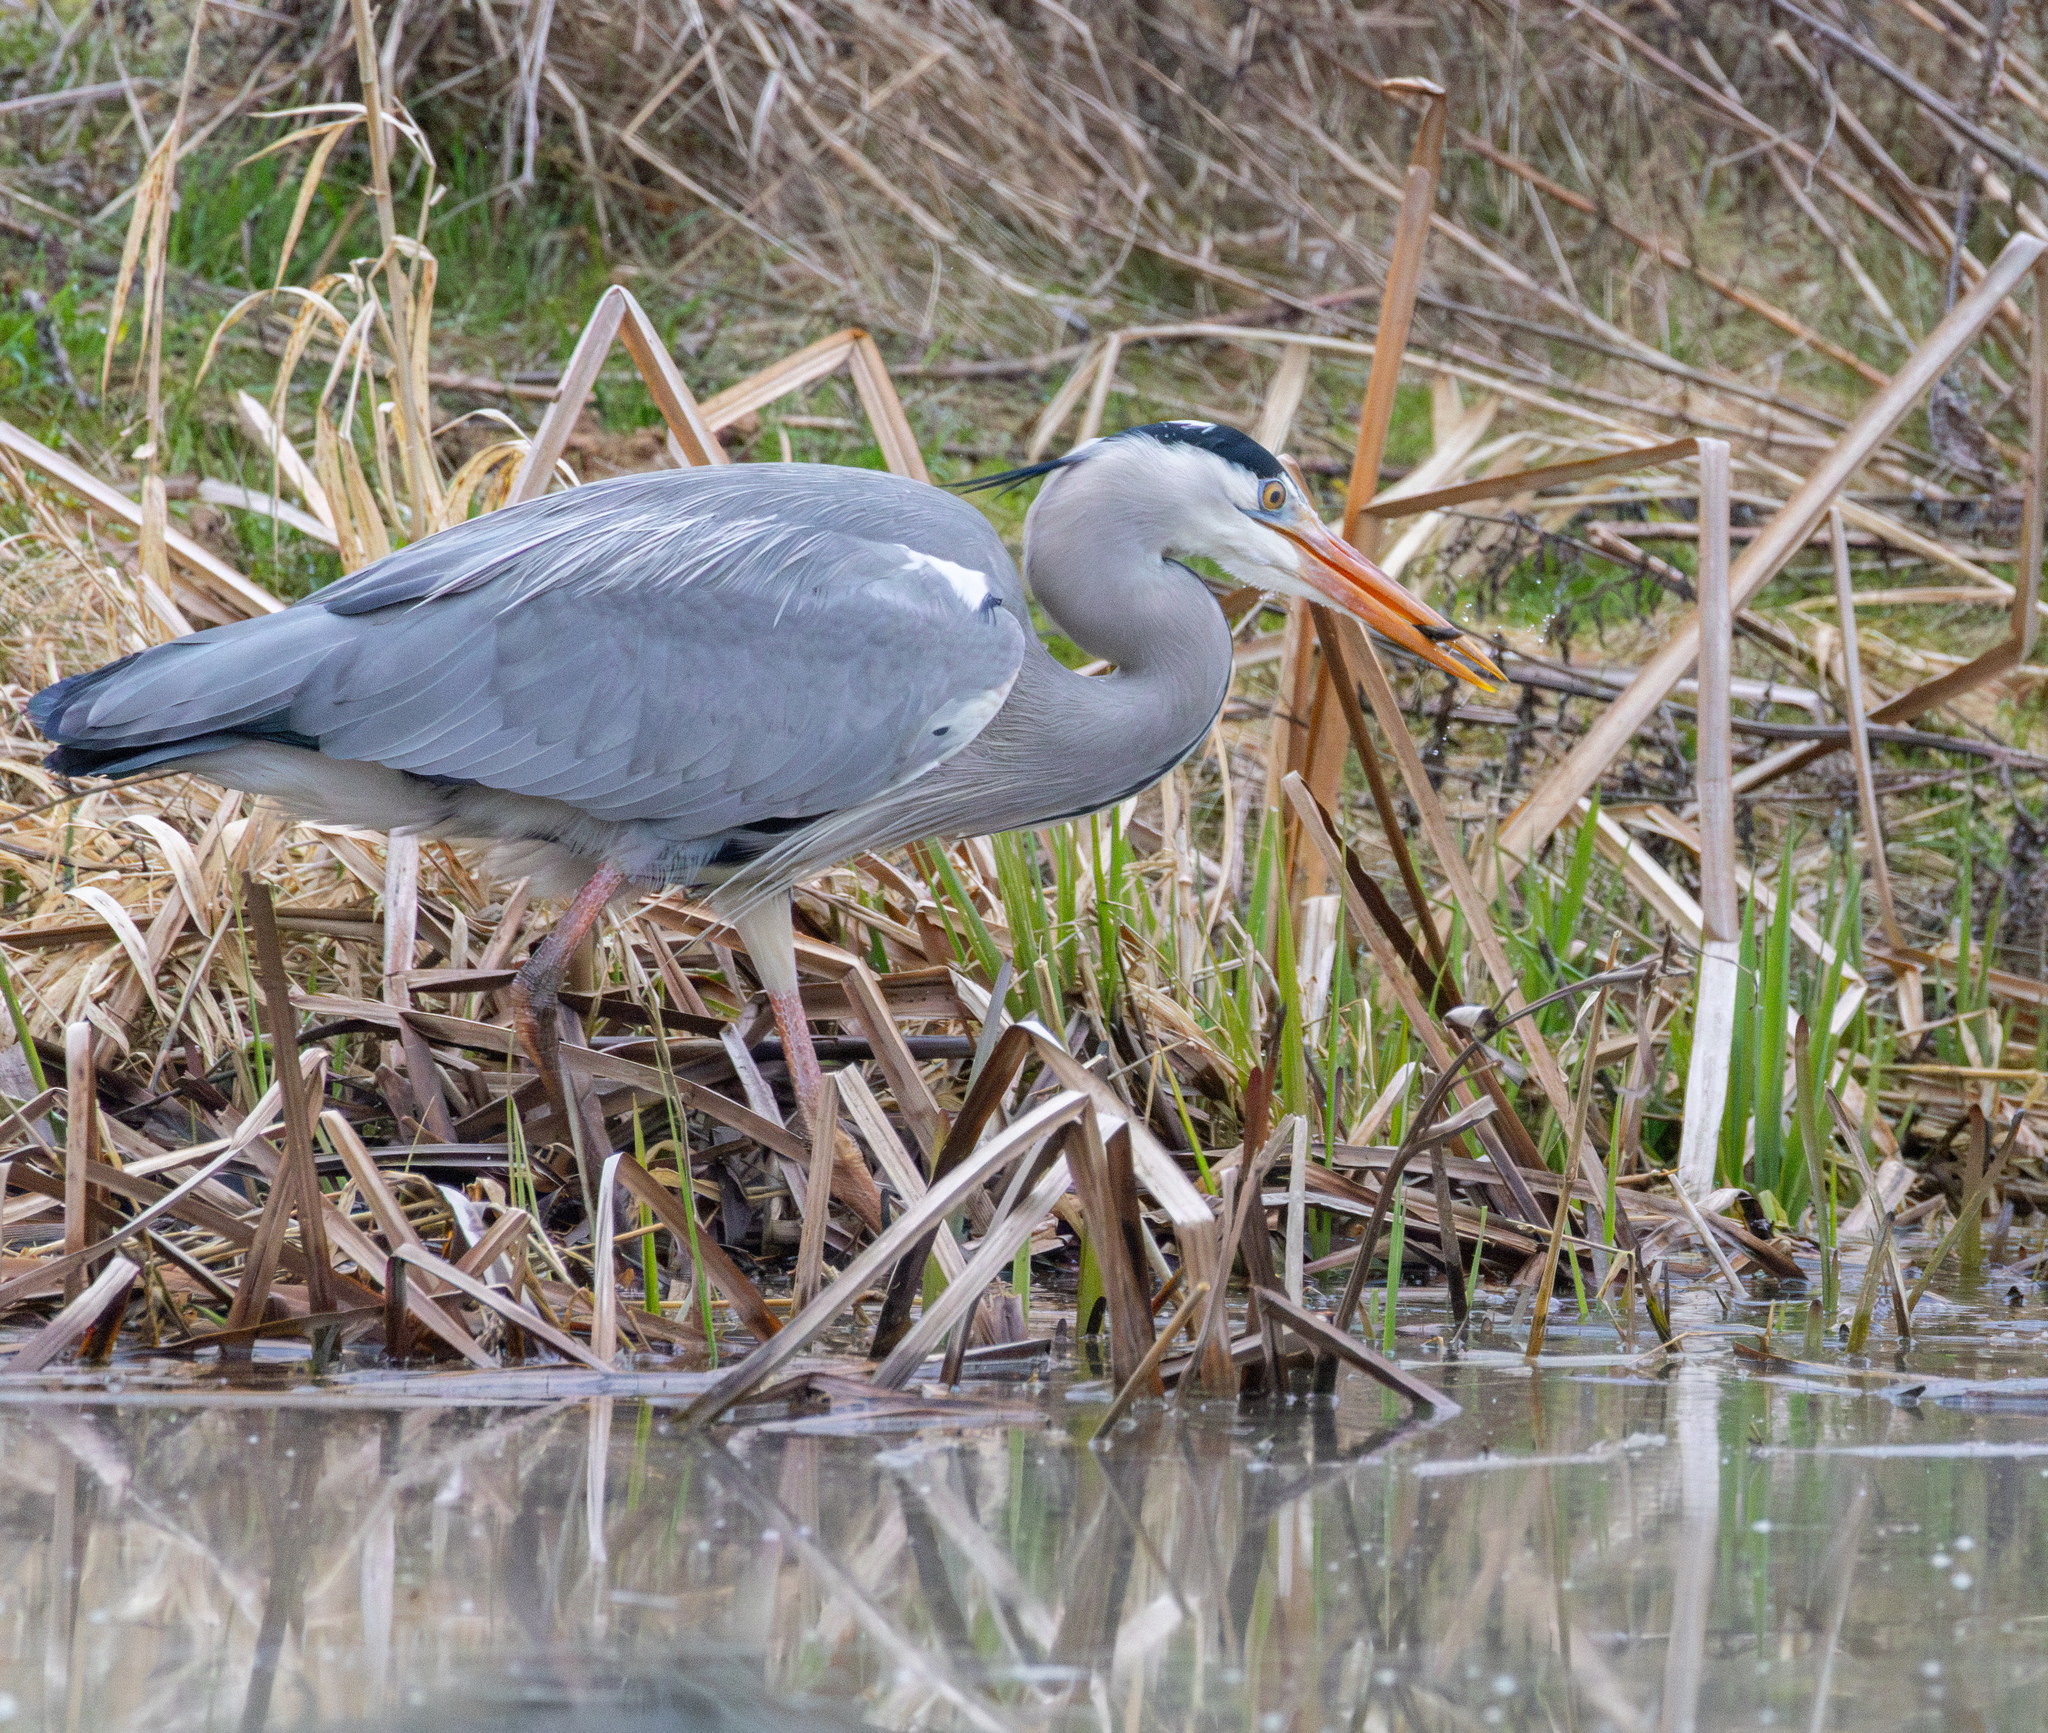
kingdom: Animalia
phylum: Chordata
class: Aves
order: Pelecaniformes
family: Ardeidae
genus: Ardea
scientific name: Ardea cinerea
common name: Grey heron
